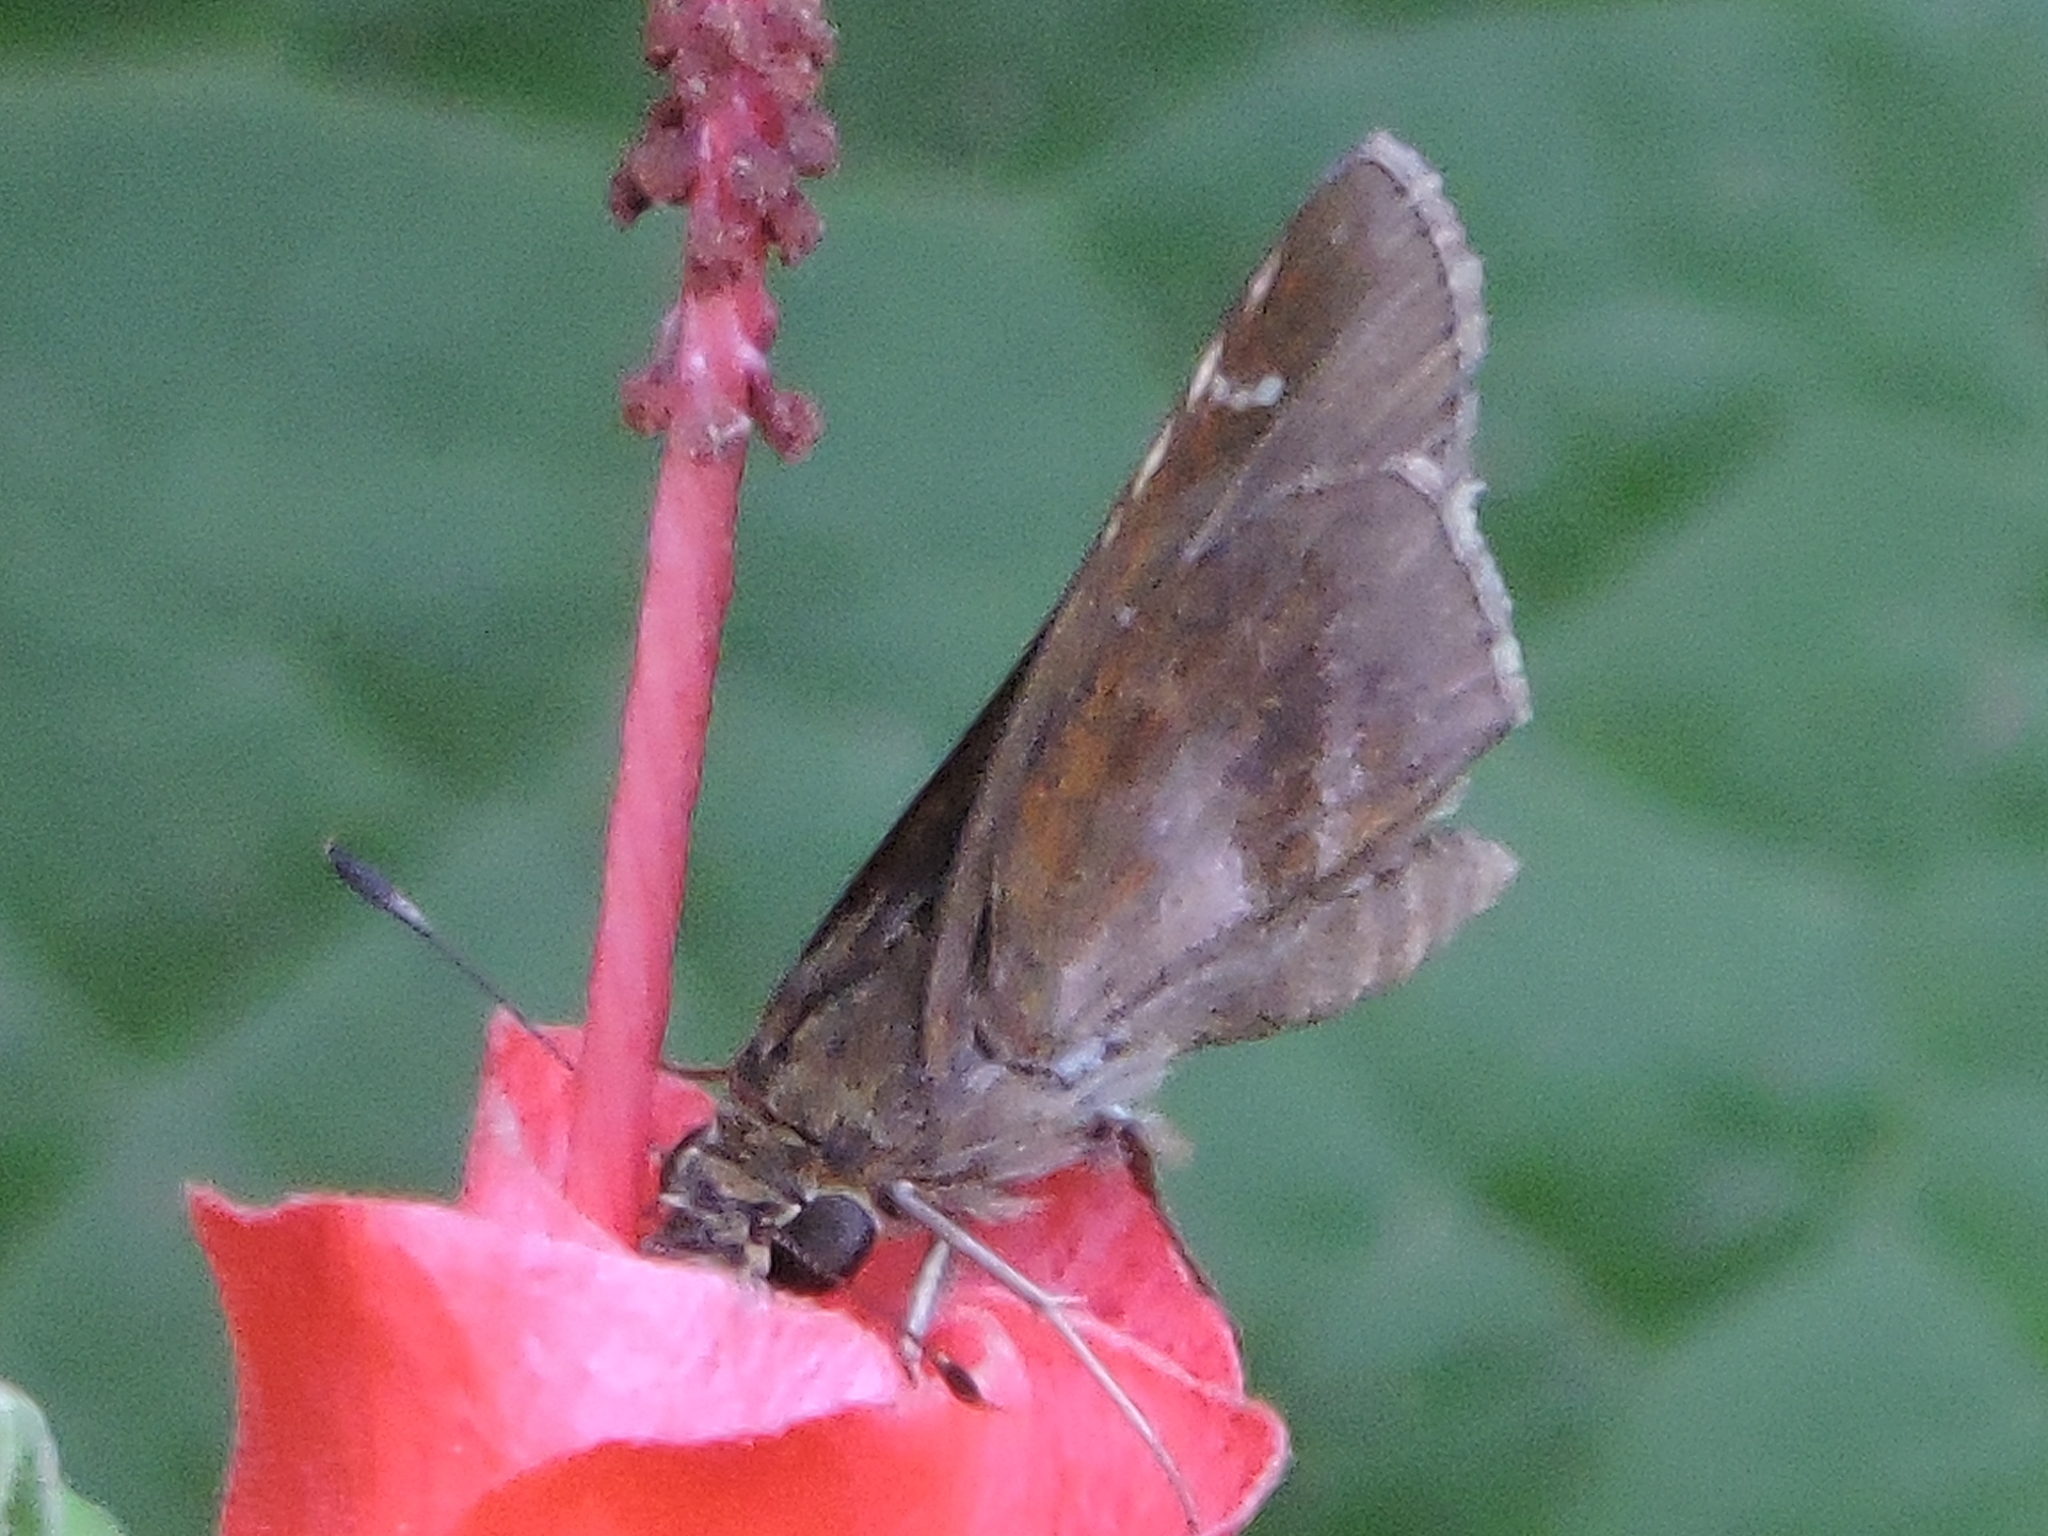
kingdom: Animalia
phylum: Arthropoda
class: Insecta
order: Lepidoptera
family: Hesperiidae
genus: Lerema
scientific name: Lerema accius
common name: Clouded skipper
